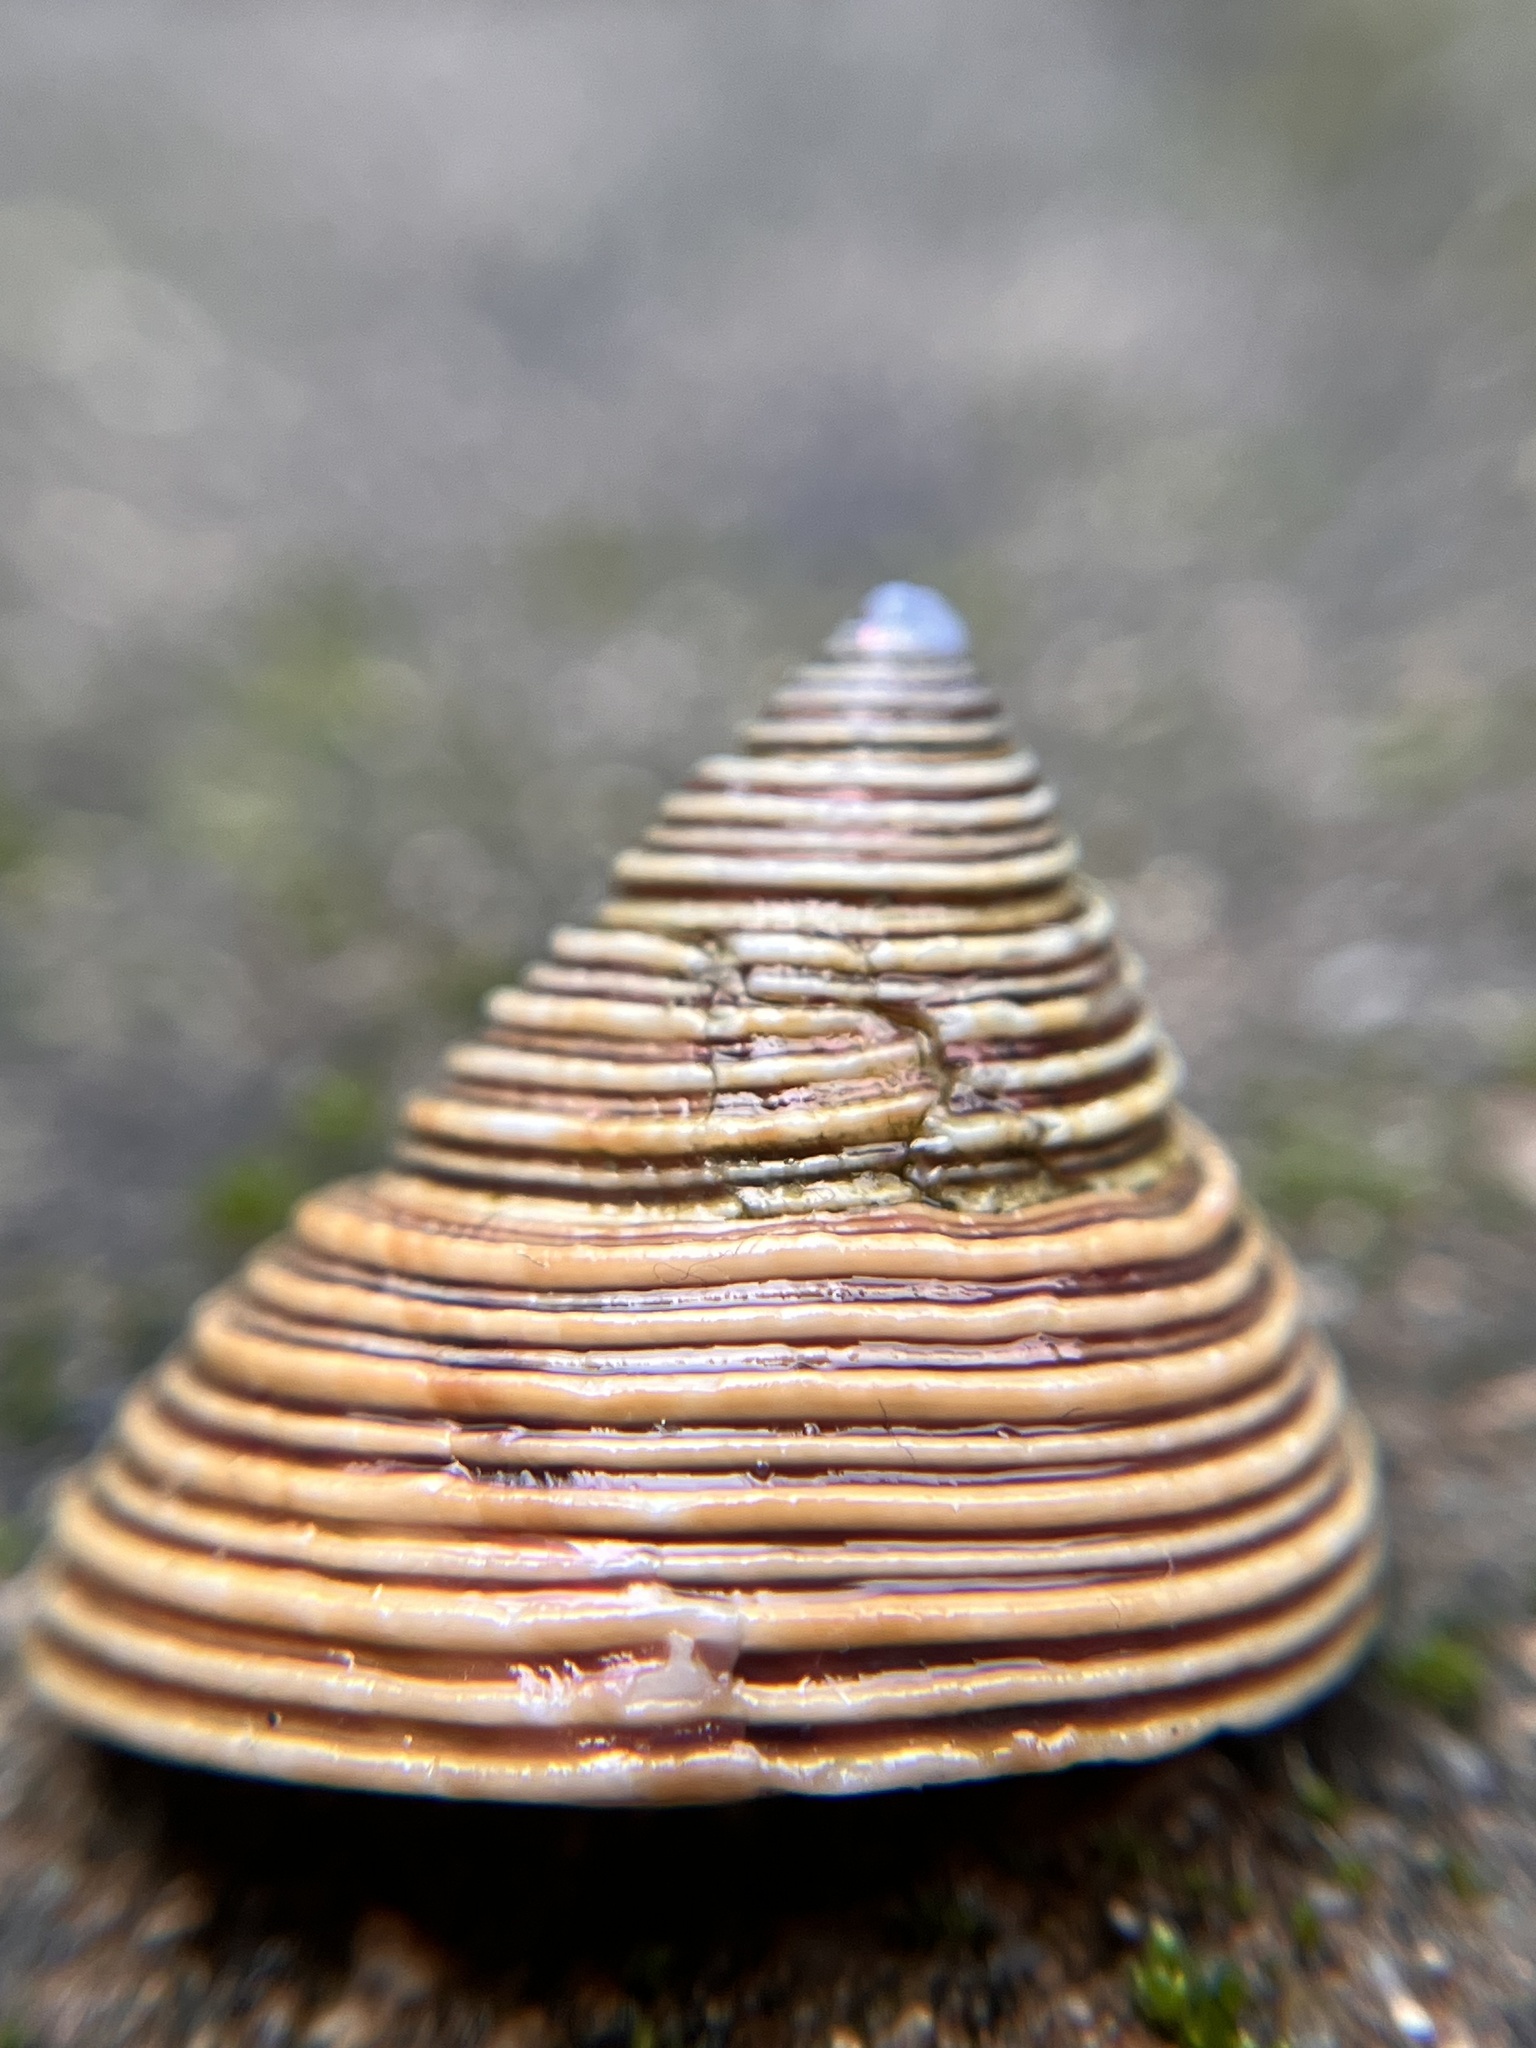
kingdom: Animalia
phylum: Mollusca
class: Gastropoda
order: Trochida
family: Calliostomatidae
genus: Calliostoma
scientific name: Calliostoma canaliculatum
